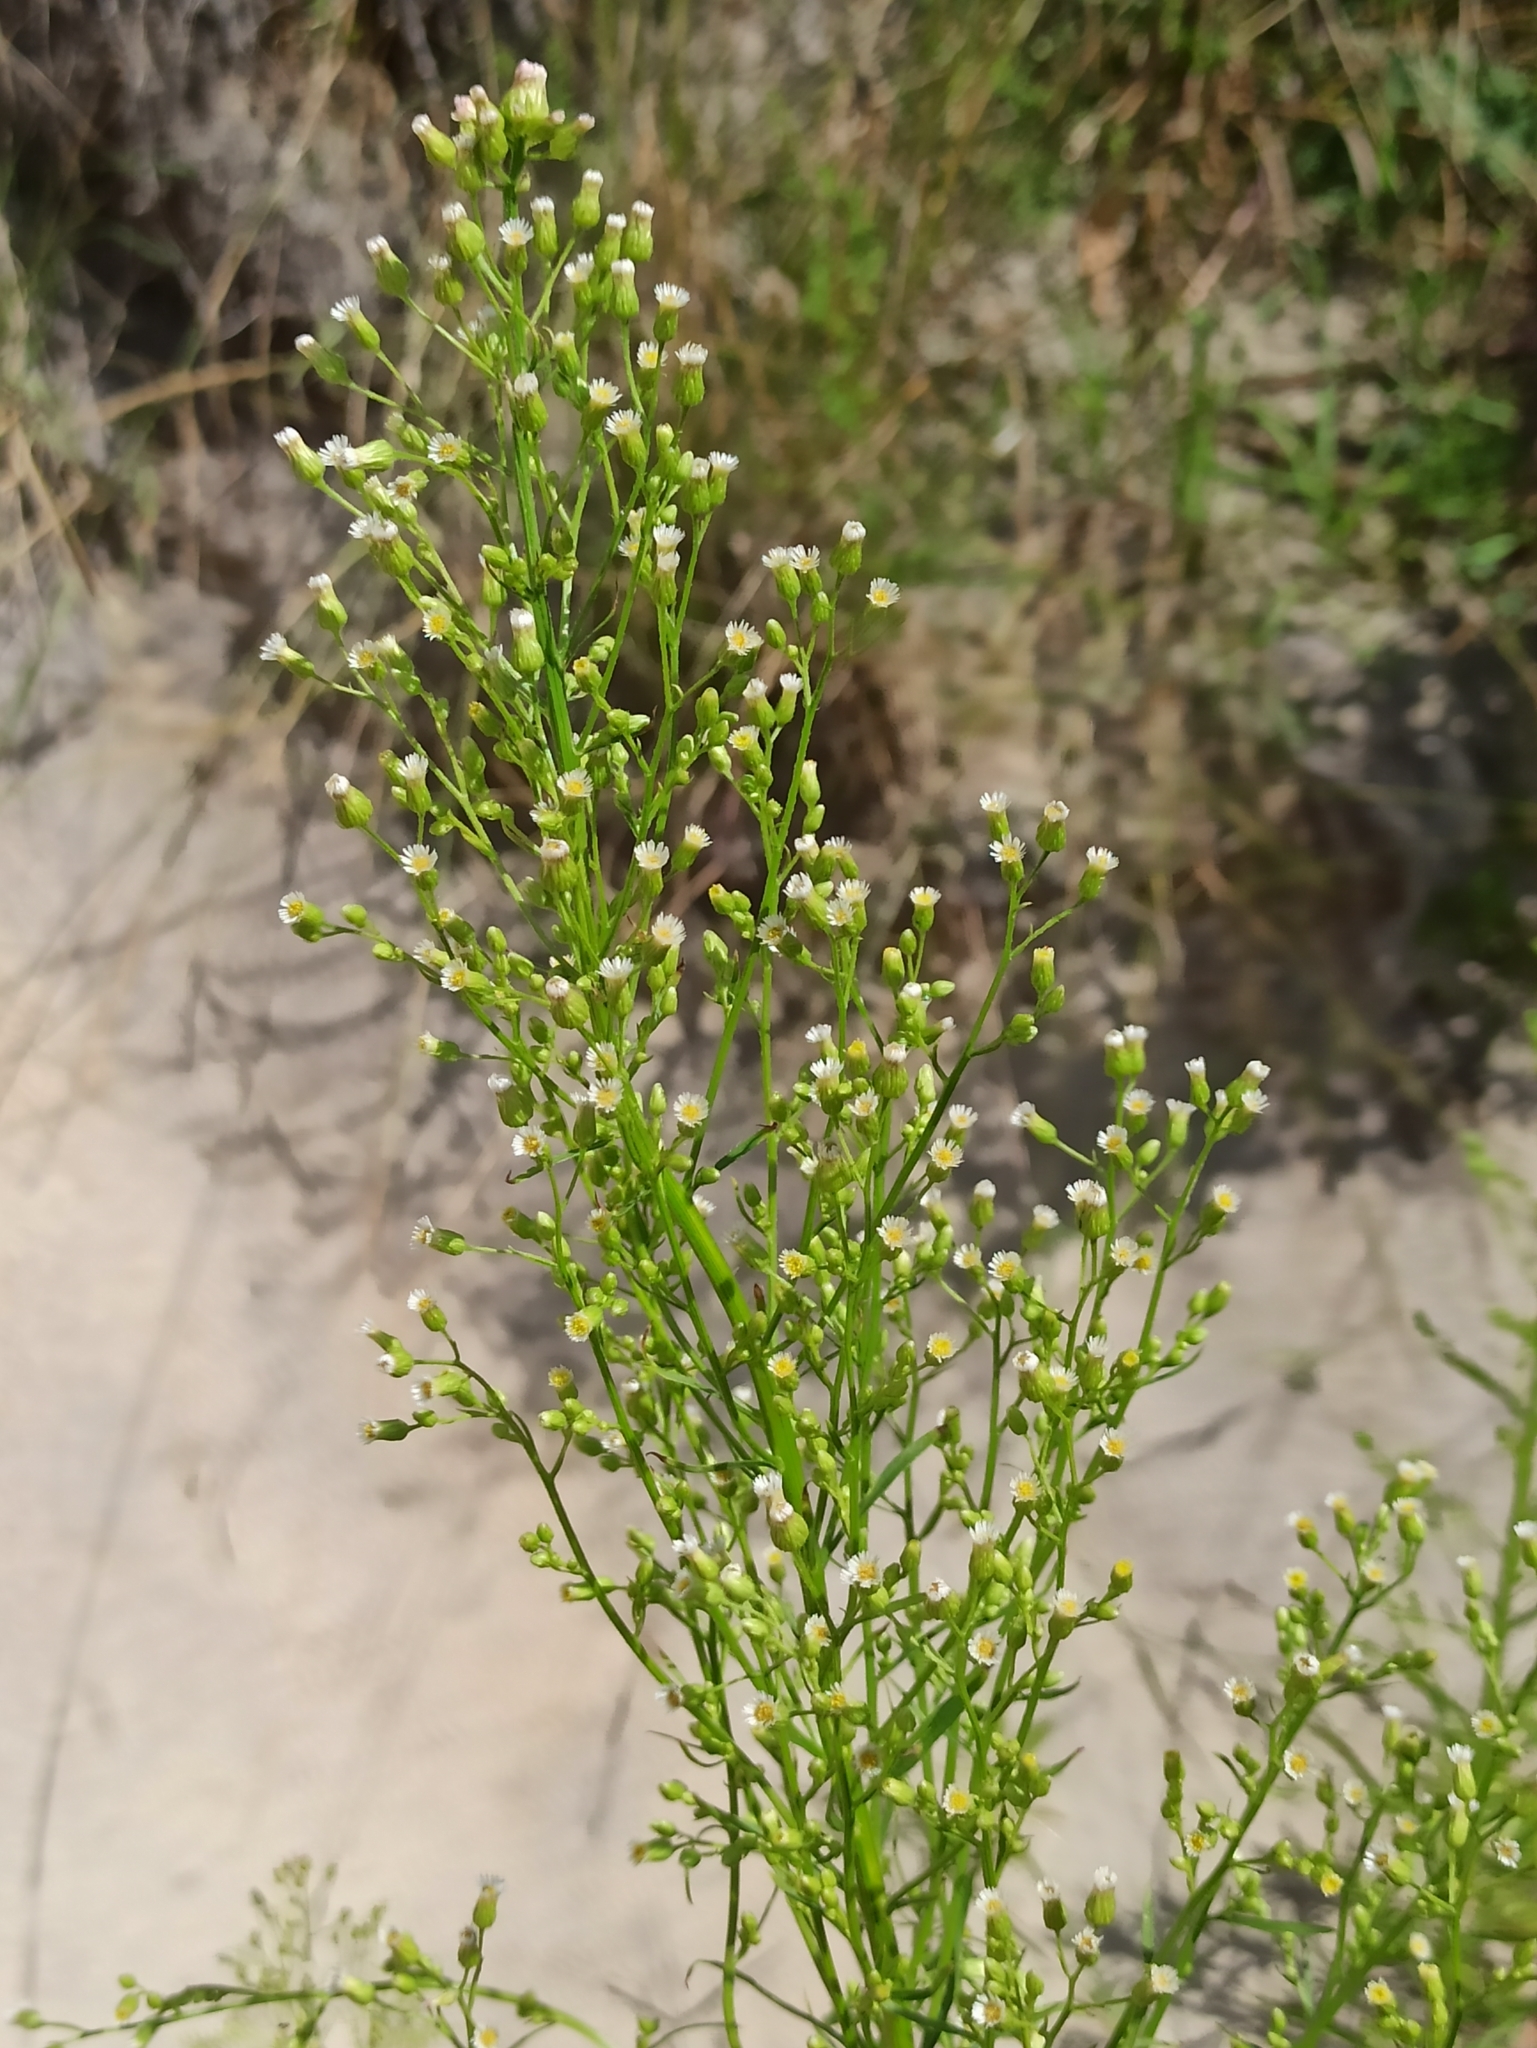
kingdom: Plantae
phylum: Tracheophyta
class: Magnoliopsida
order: Asterales
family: Asteraceae
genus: Erigeron
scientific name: Erigeron canadensis
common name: Canadian fleabane
